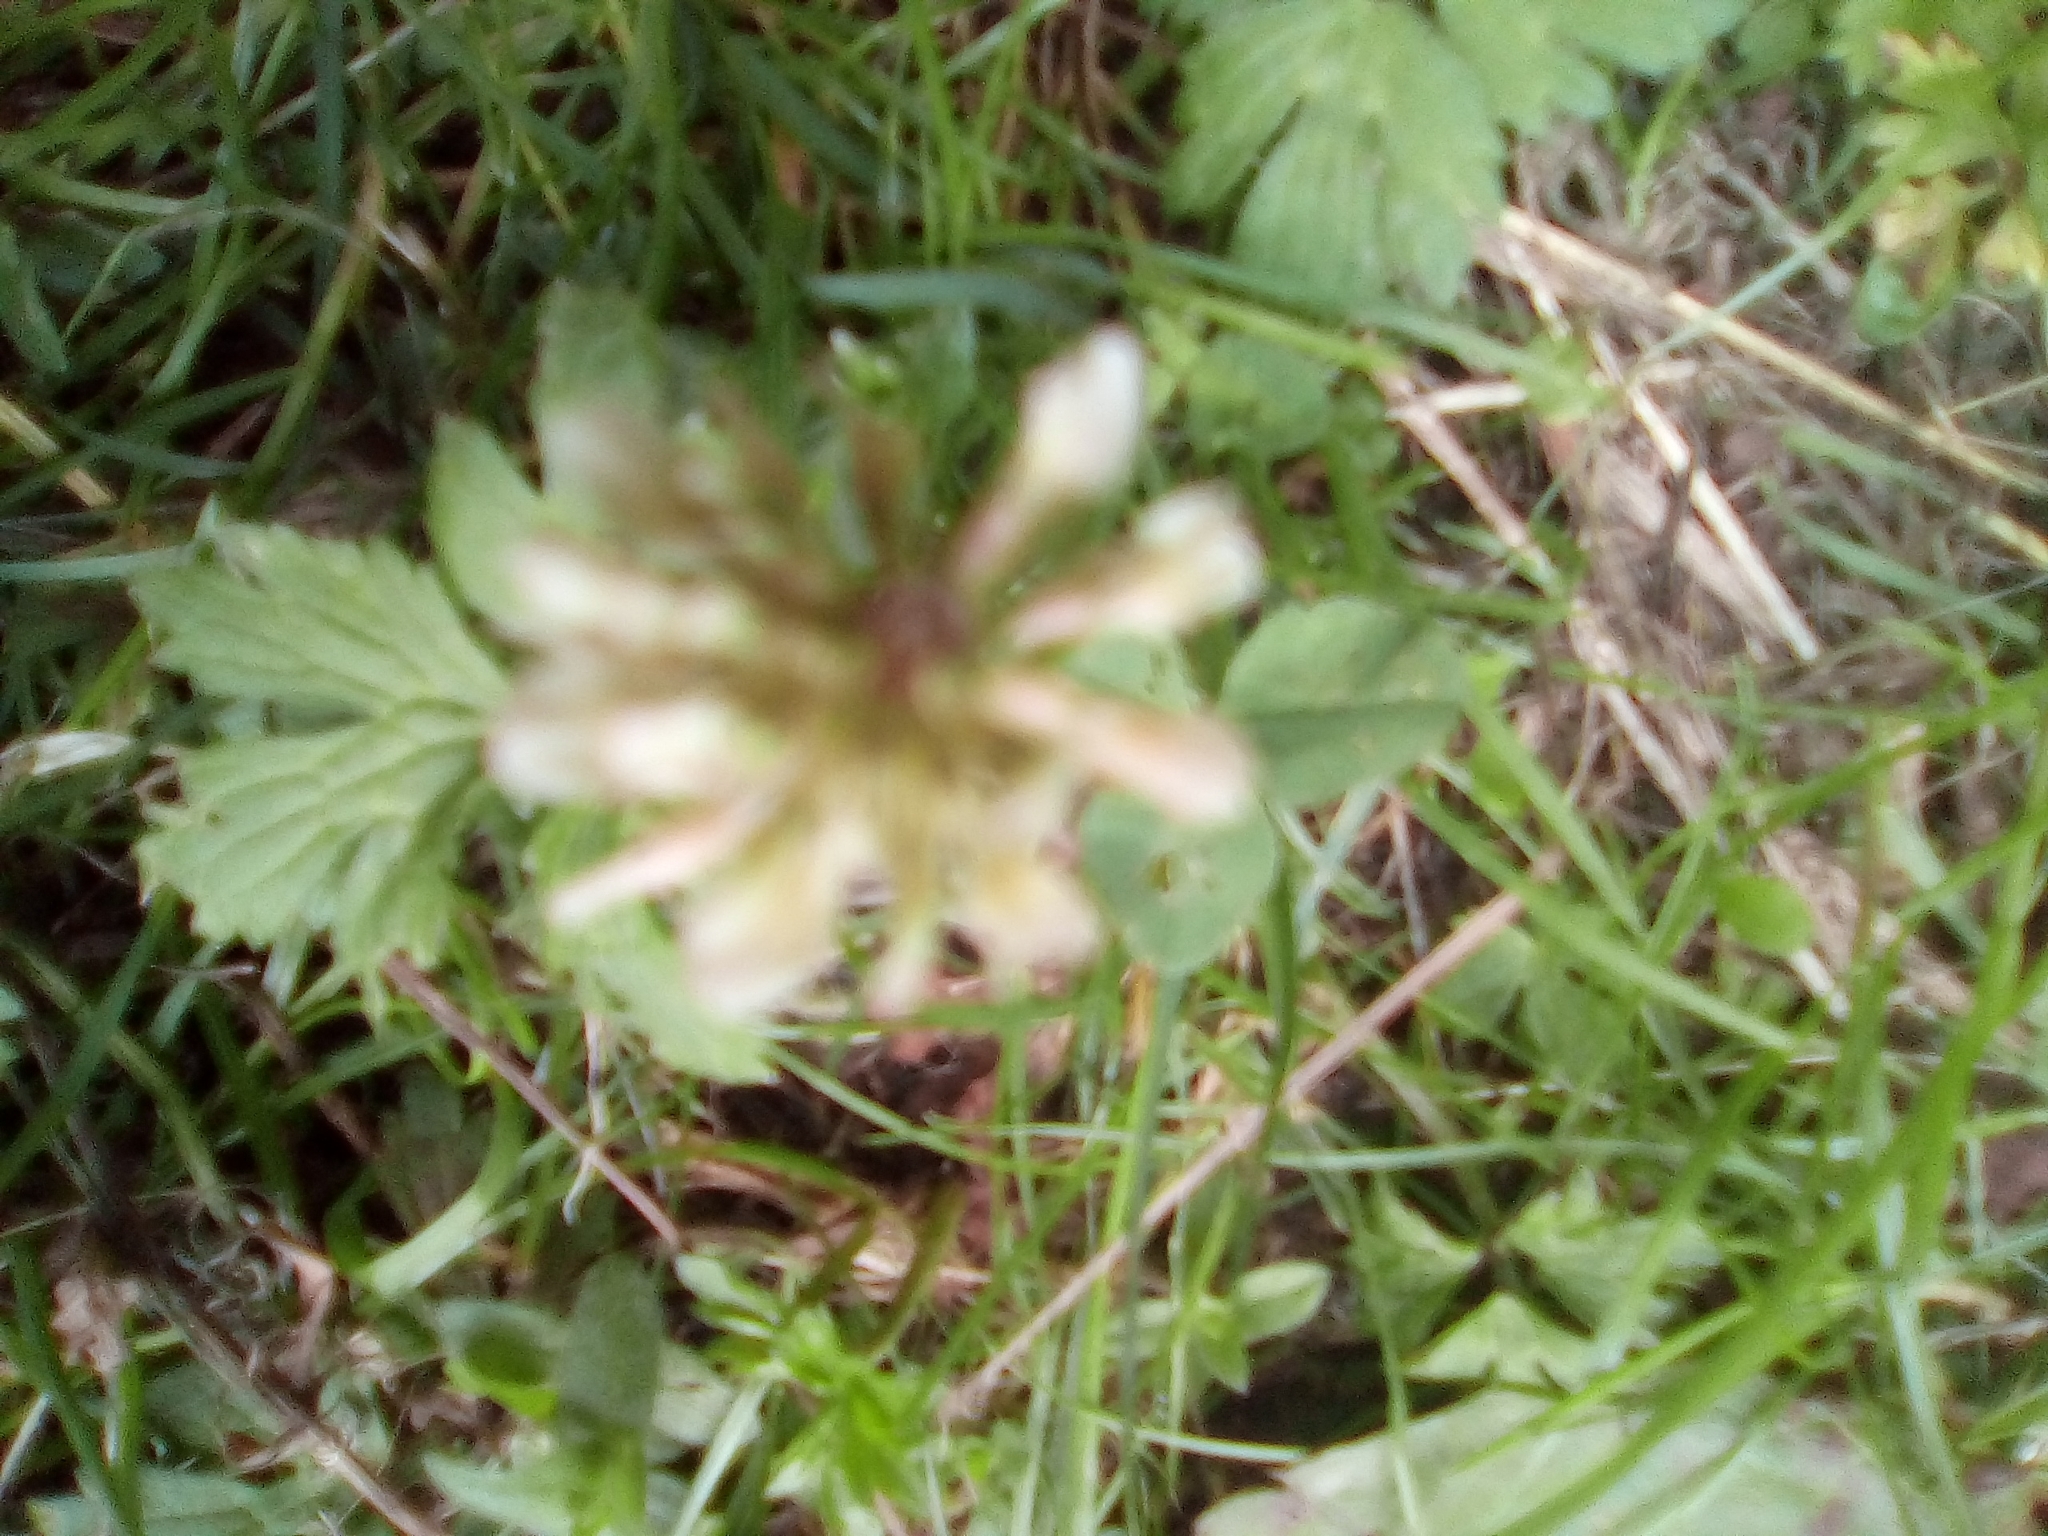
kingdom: Plantae
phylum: Tracheophyta
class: Magnoliopsida
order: Fabales
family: Fabaceae
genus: Trifolium
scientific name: Trifolium repens
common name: White clover
